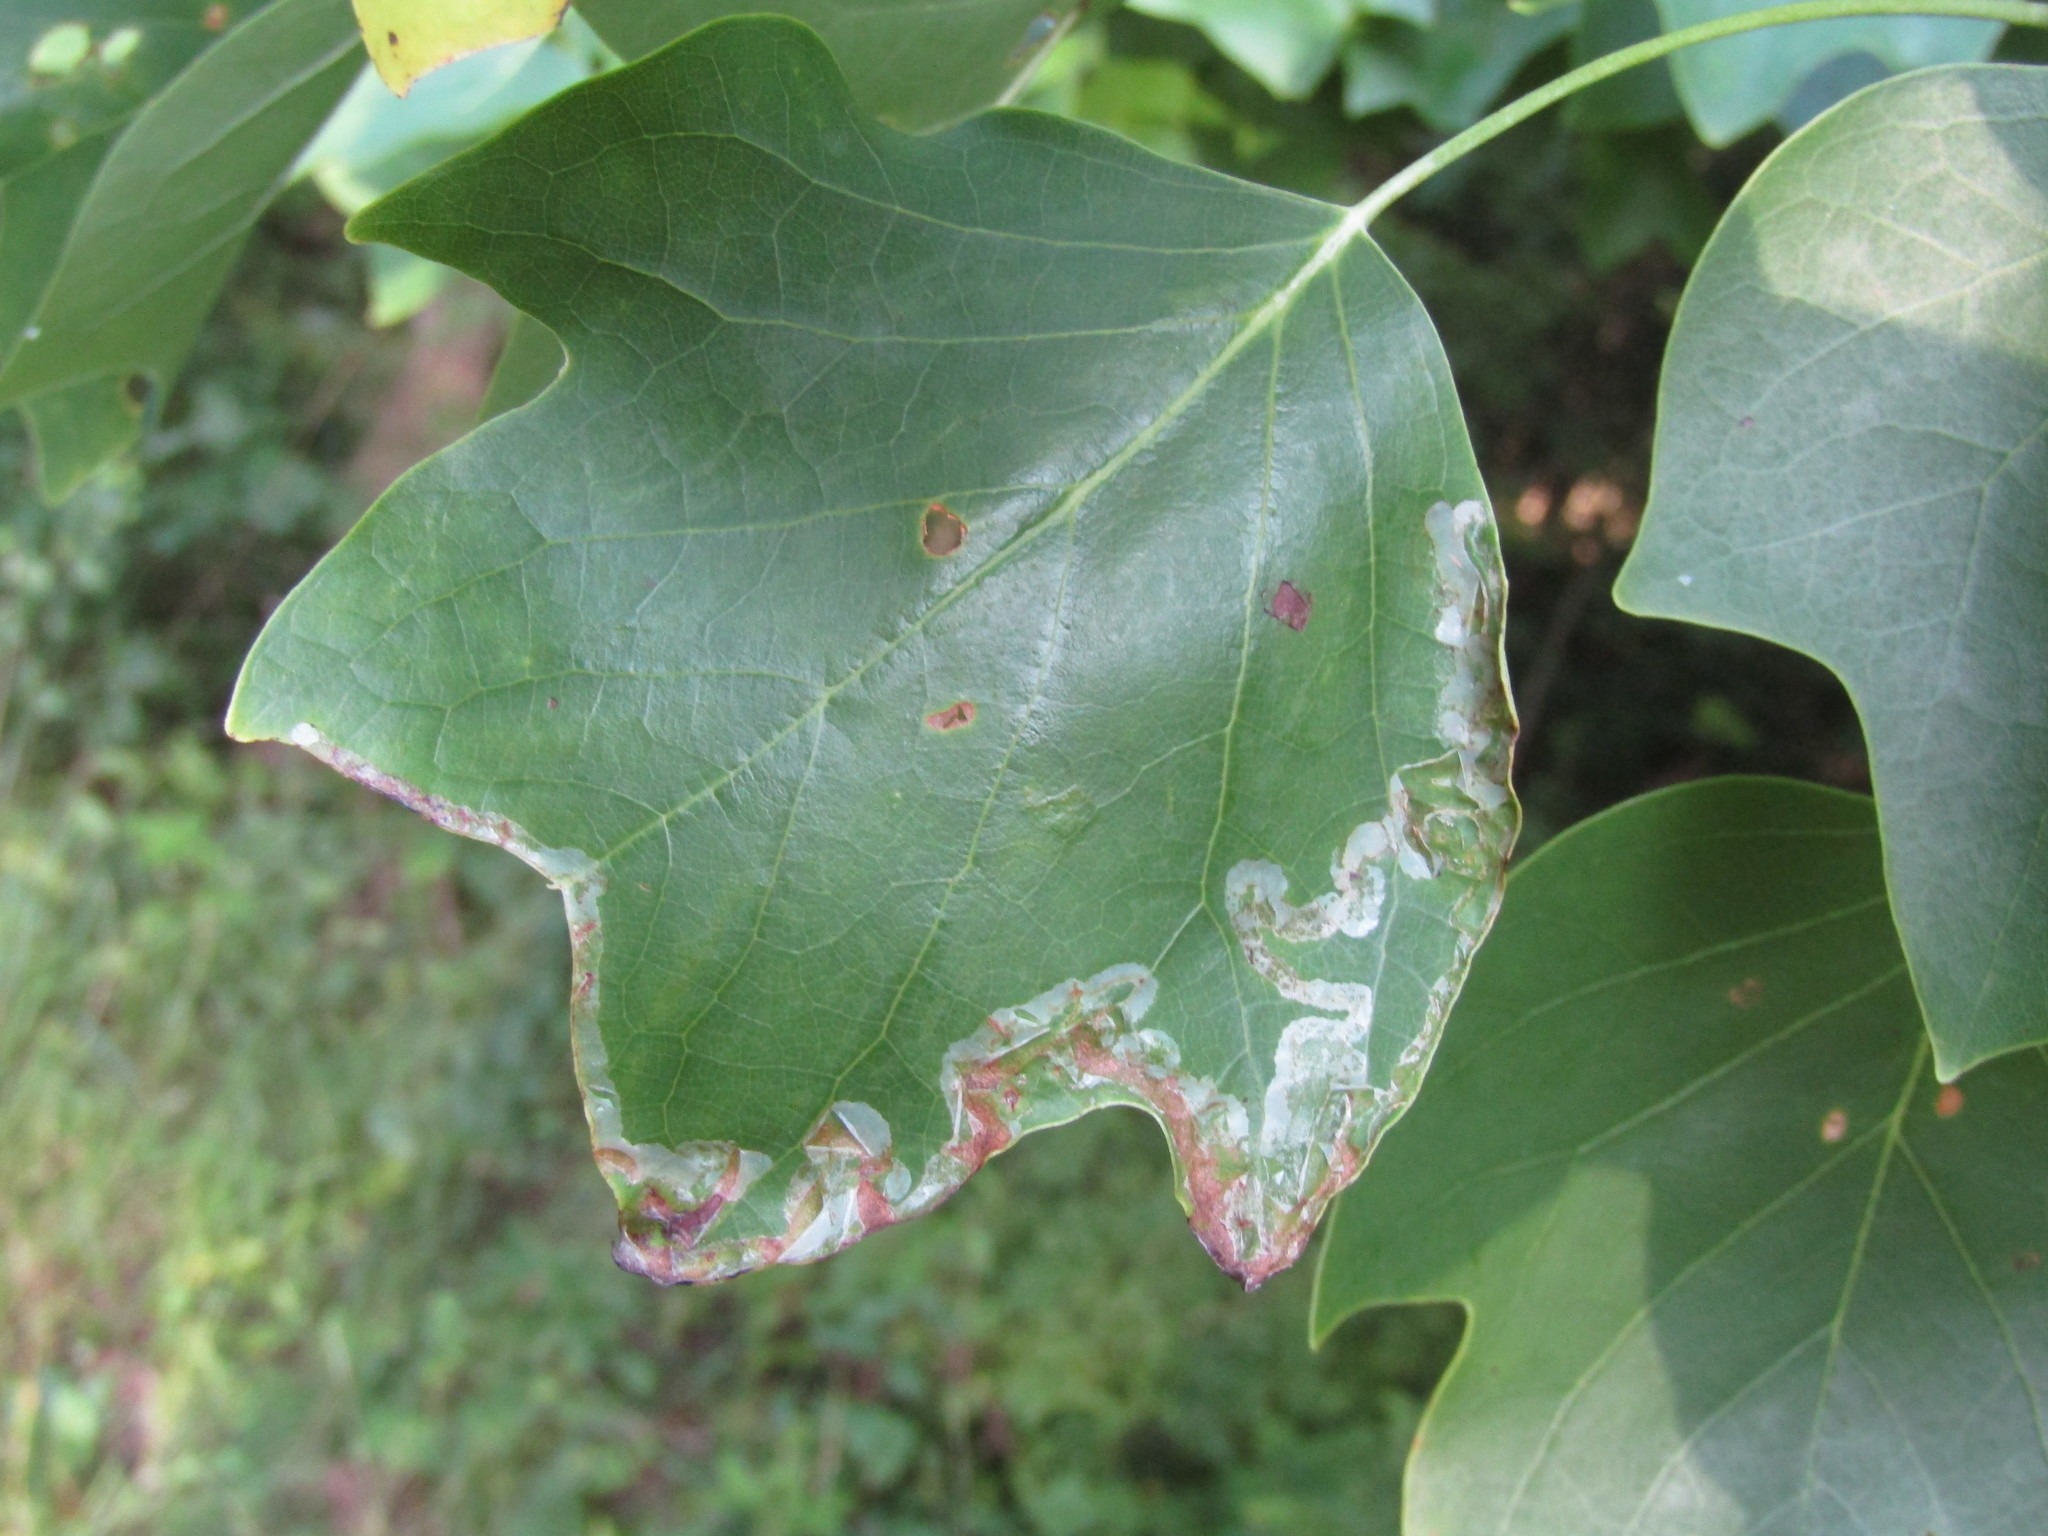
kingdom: Animalia
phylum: Arthropoda
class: Insecta
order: Lepidoptera
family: Gracillariidae
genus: Phyllocnistis
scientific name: Phyllocnistis liriodendronella
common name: Tulip tree leaf miner
